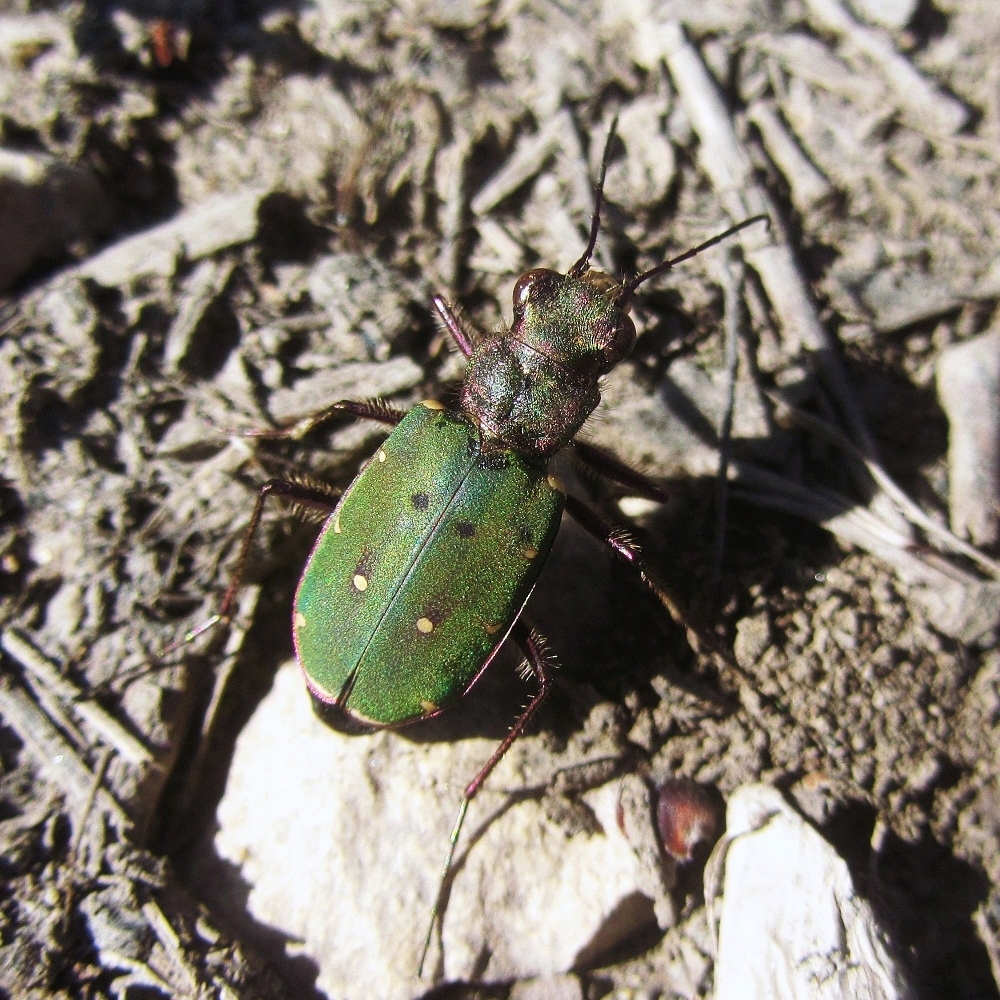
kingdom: Animalia
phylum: Arthropoda
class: Insecta
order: Coleoptera
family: Carabidae
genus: Cicindela
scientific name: Cicindela campestris
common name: Common tiger beetle
